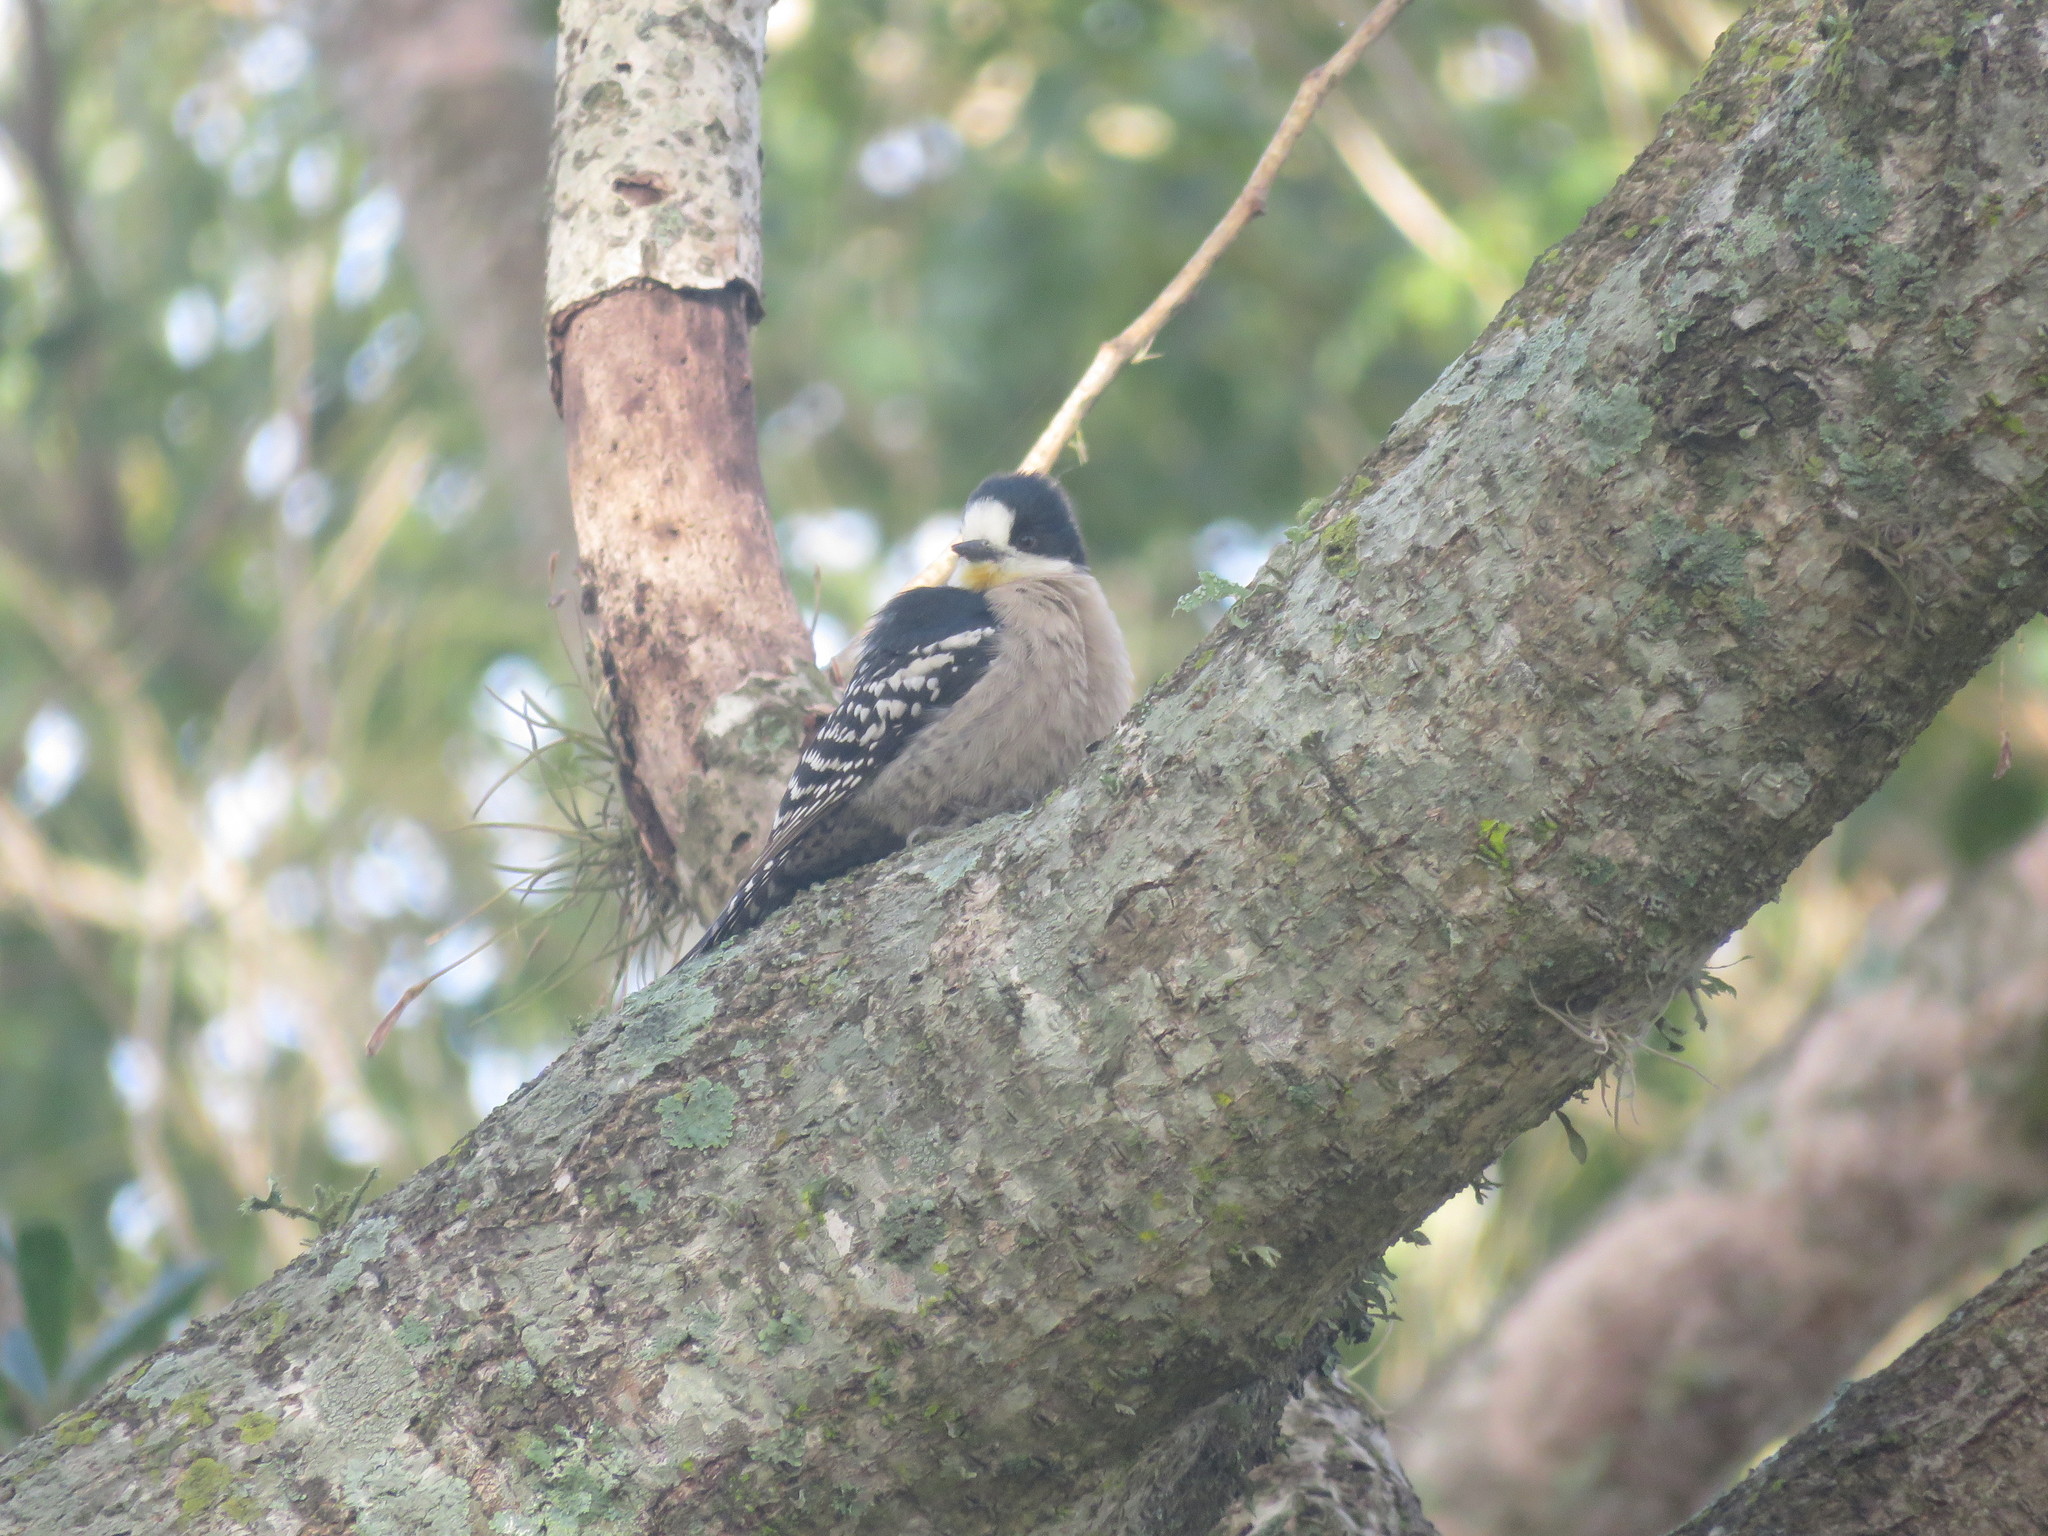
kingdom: Animalia
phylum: Chordata
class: Aves
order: Piciformes
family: Picidae
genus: Melanerpes
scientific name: Melanerpes cactorum
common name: White-fronted woodpecker
